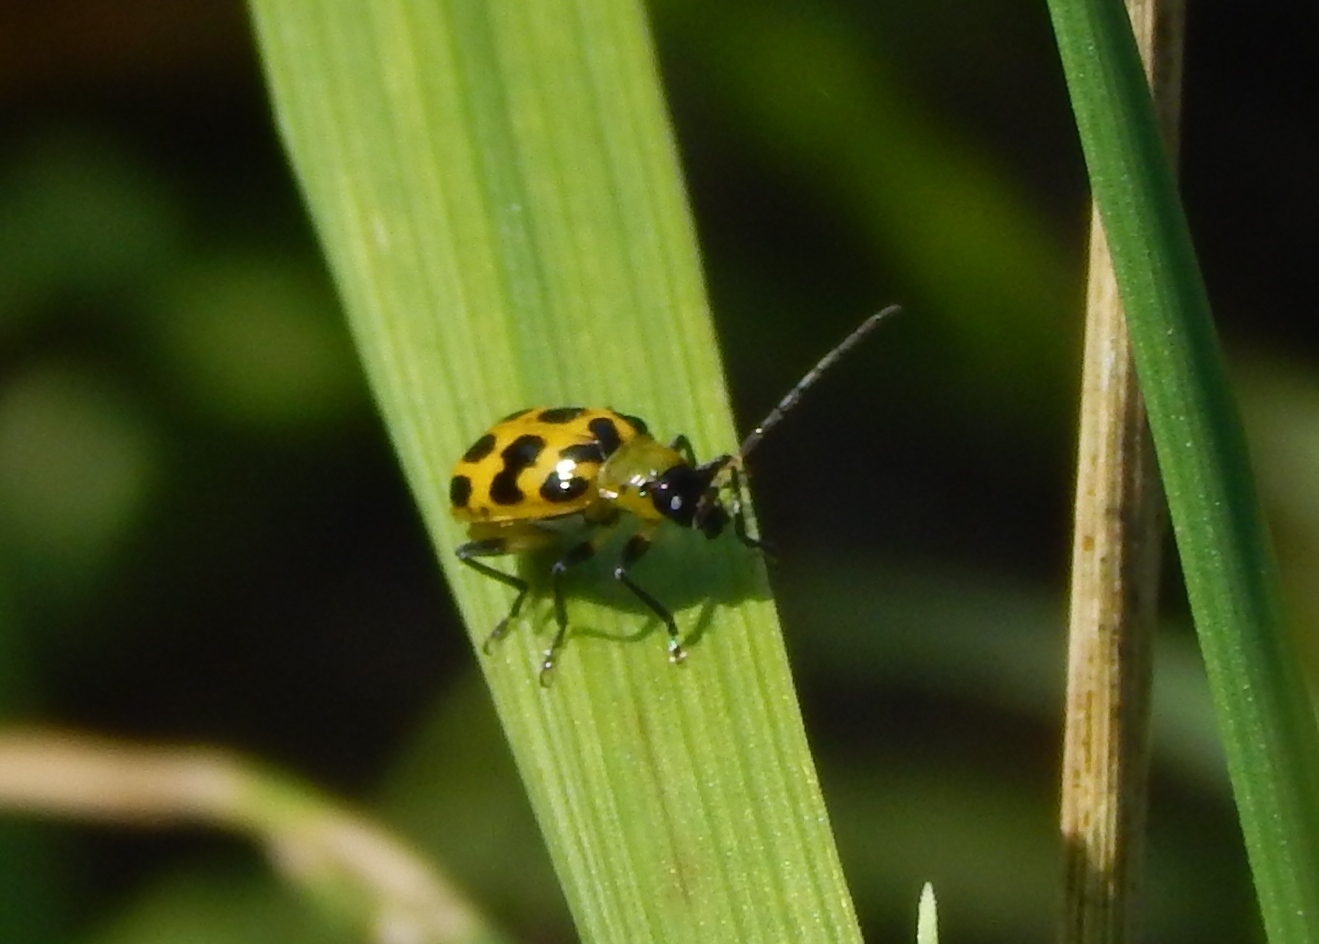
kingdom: Animalia
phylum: Arthropoda
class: Insecta
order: Coleoptera
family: Chrysomelidae
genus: Diabrotica
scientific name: Diabrotica undecimpunctata
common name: Spotted cucumber beetle
